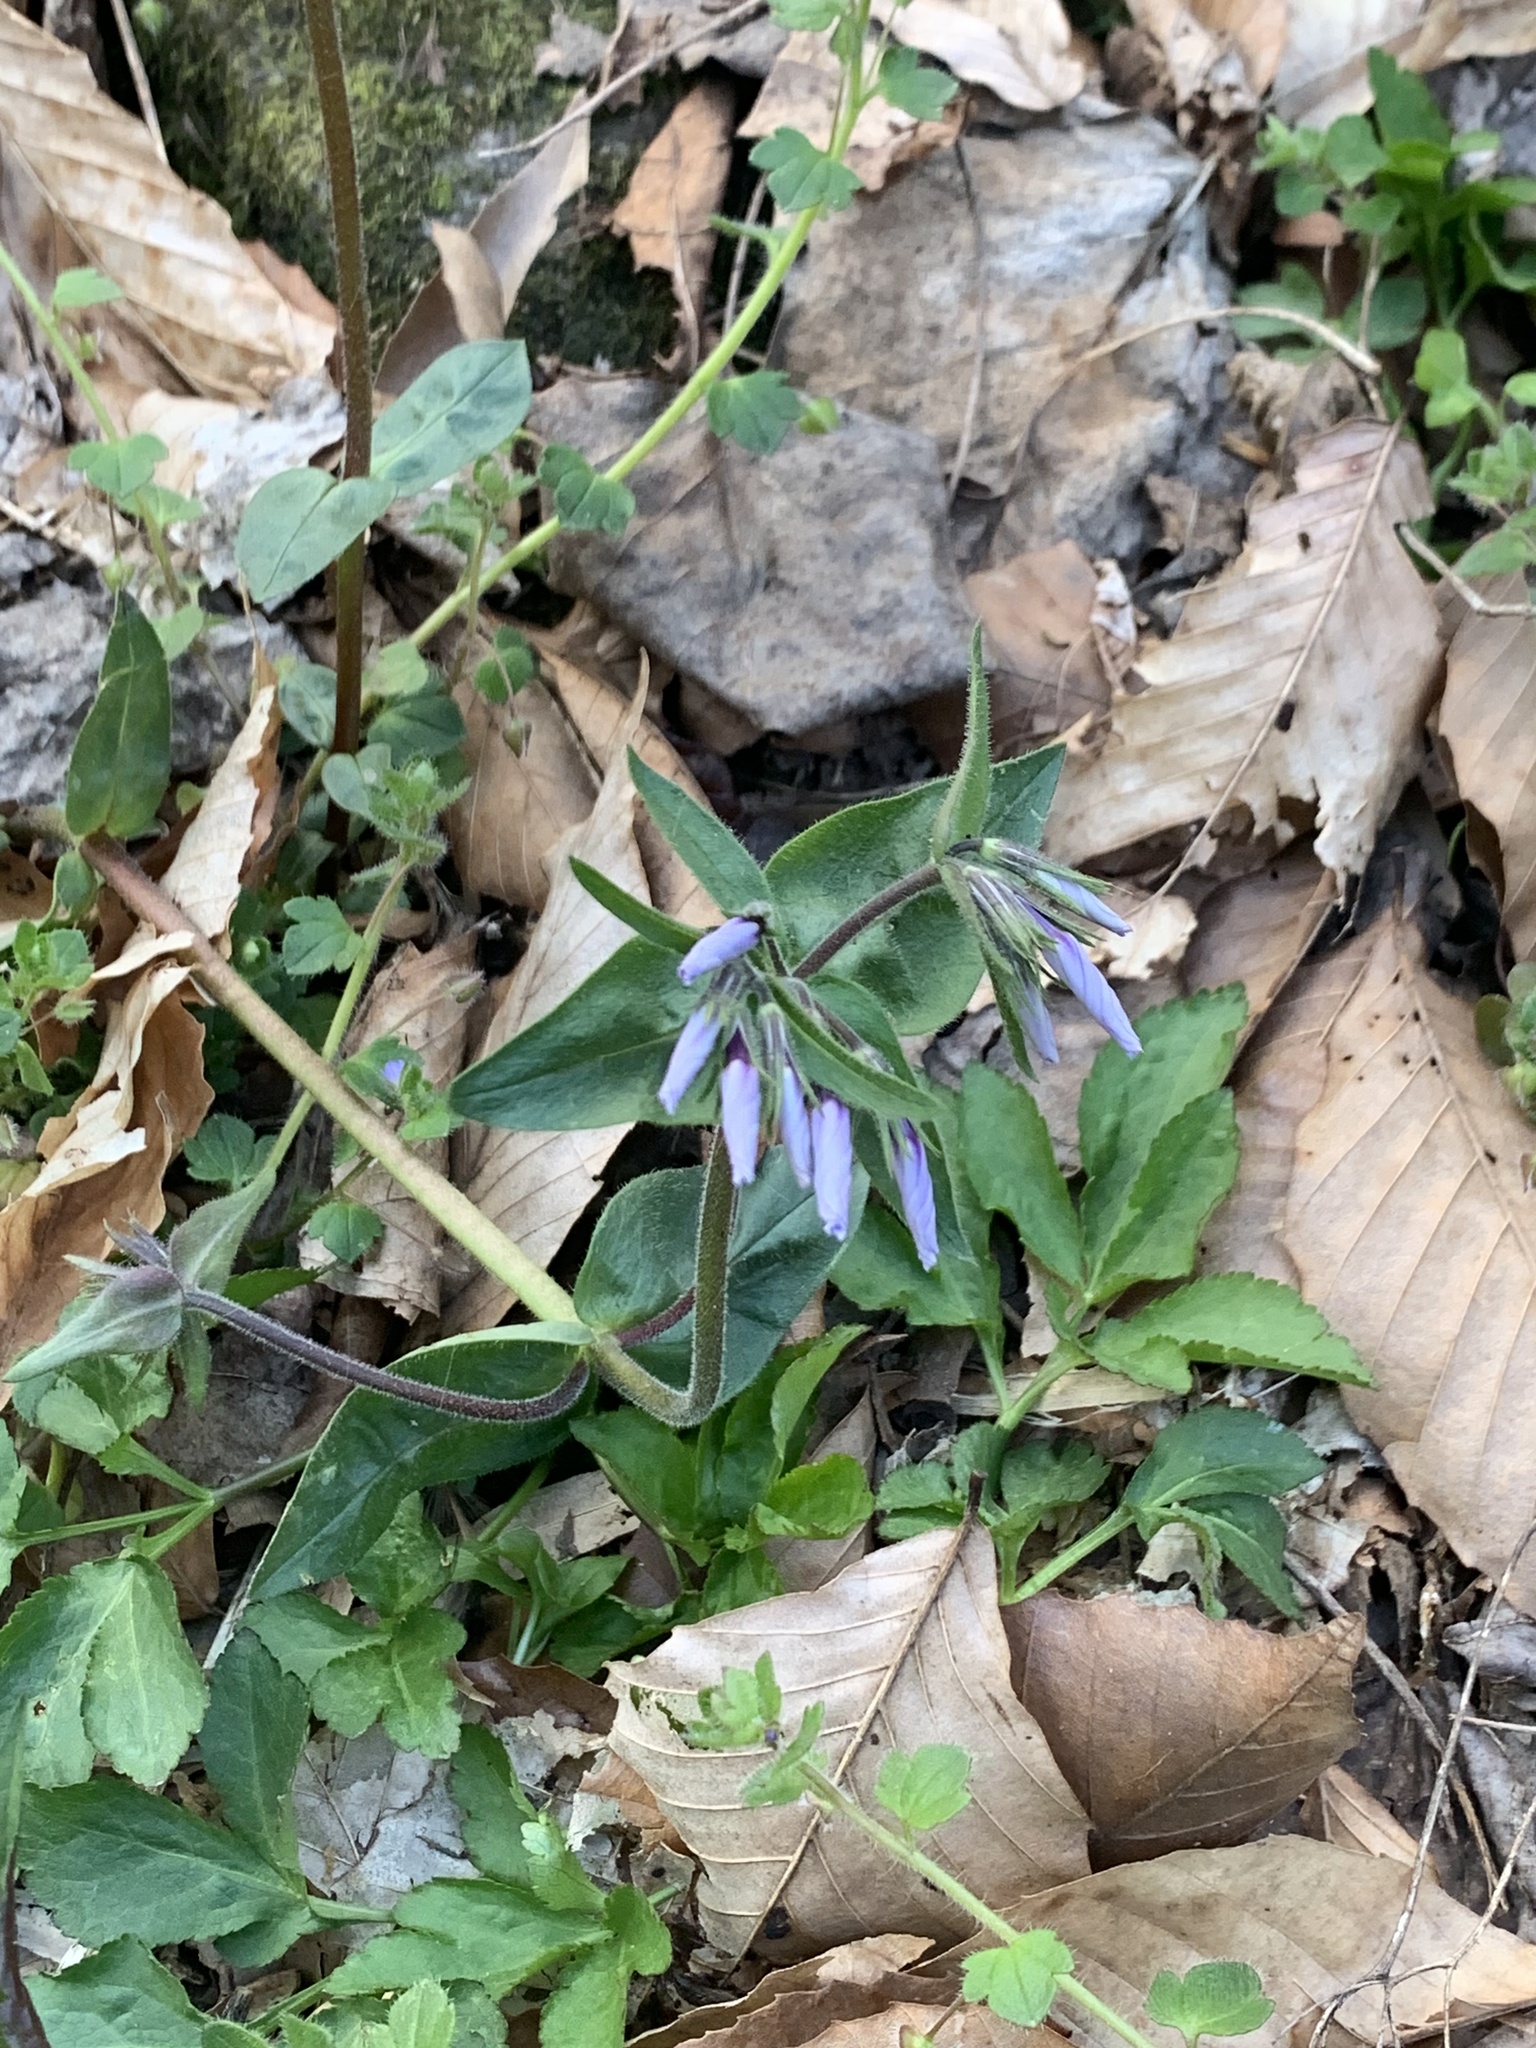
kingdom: Plantae
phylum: Tracheophyta
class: Magnoliopsida
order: Ericales
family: Polemoniaceae
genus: Phlox
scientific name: Phlox divaricata
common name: Blue phlox
